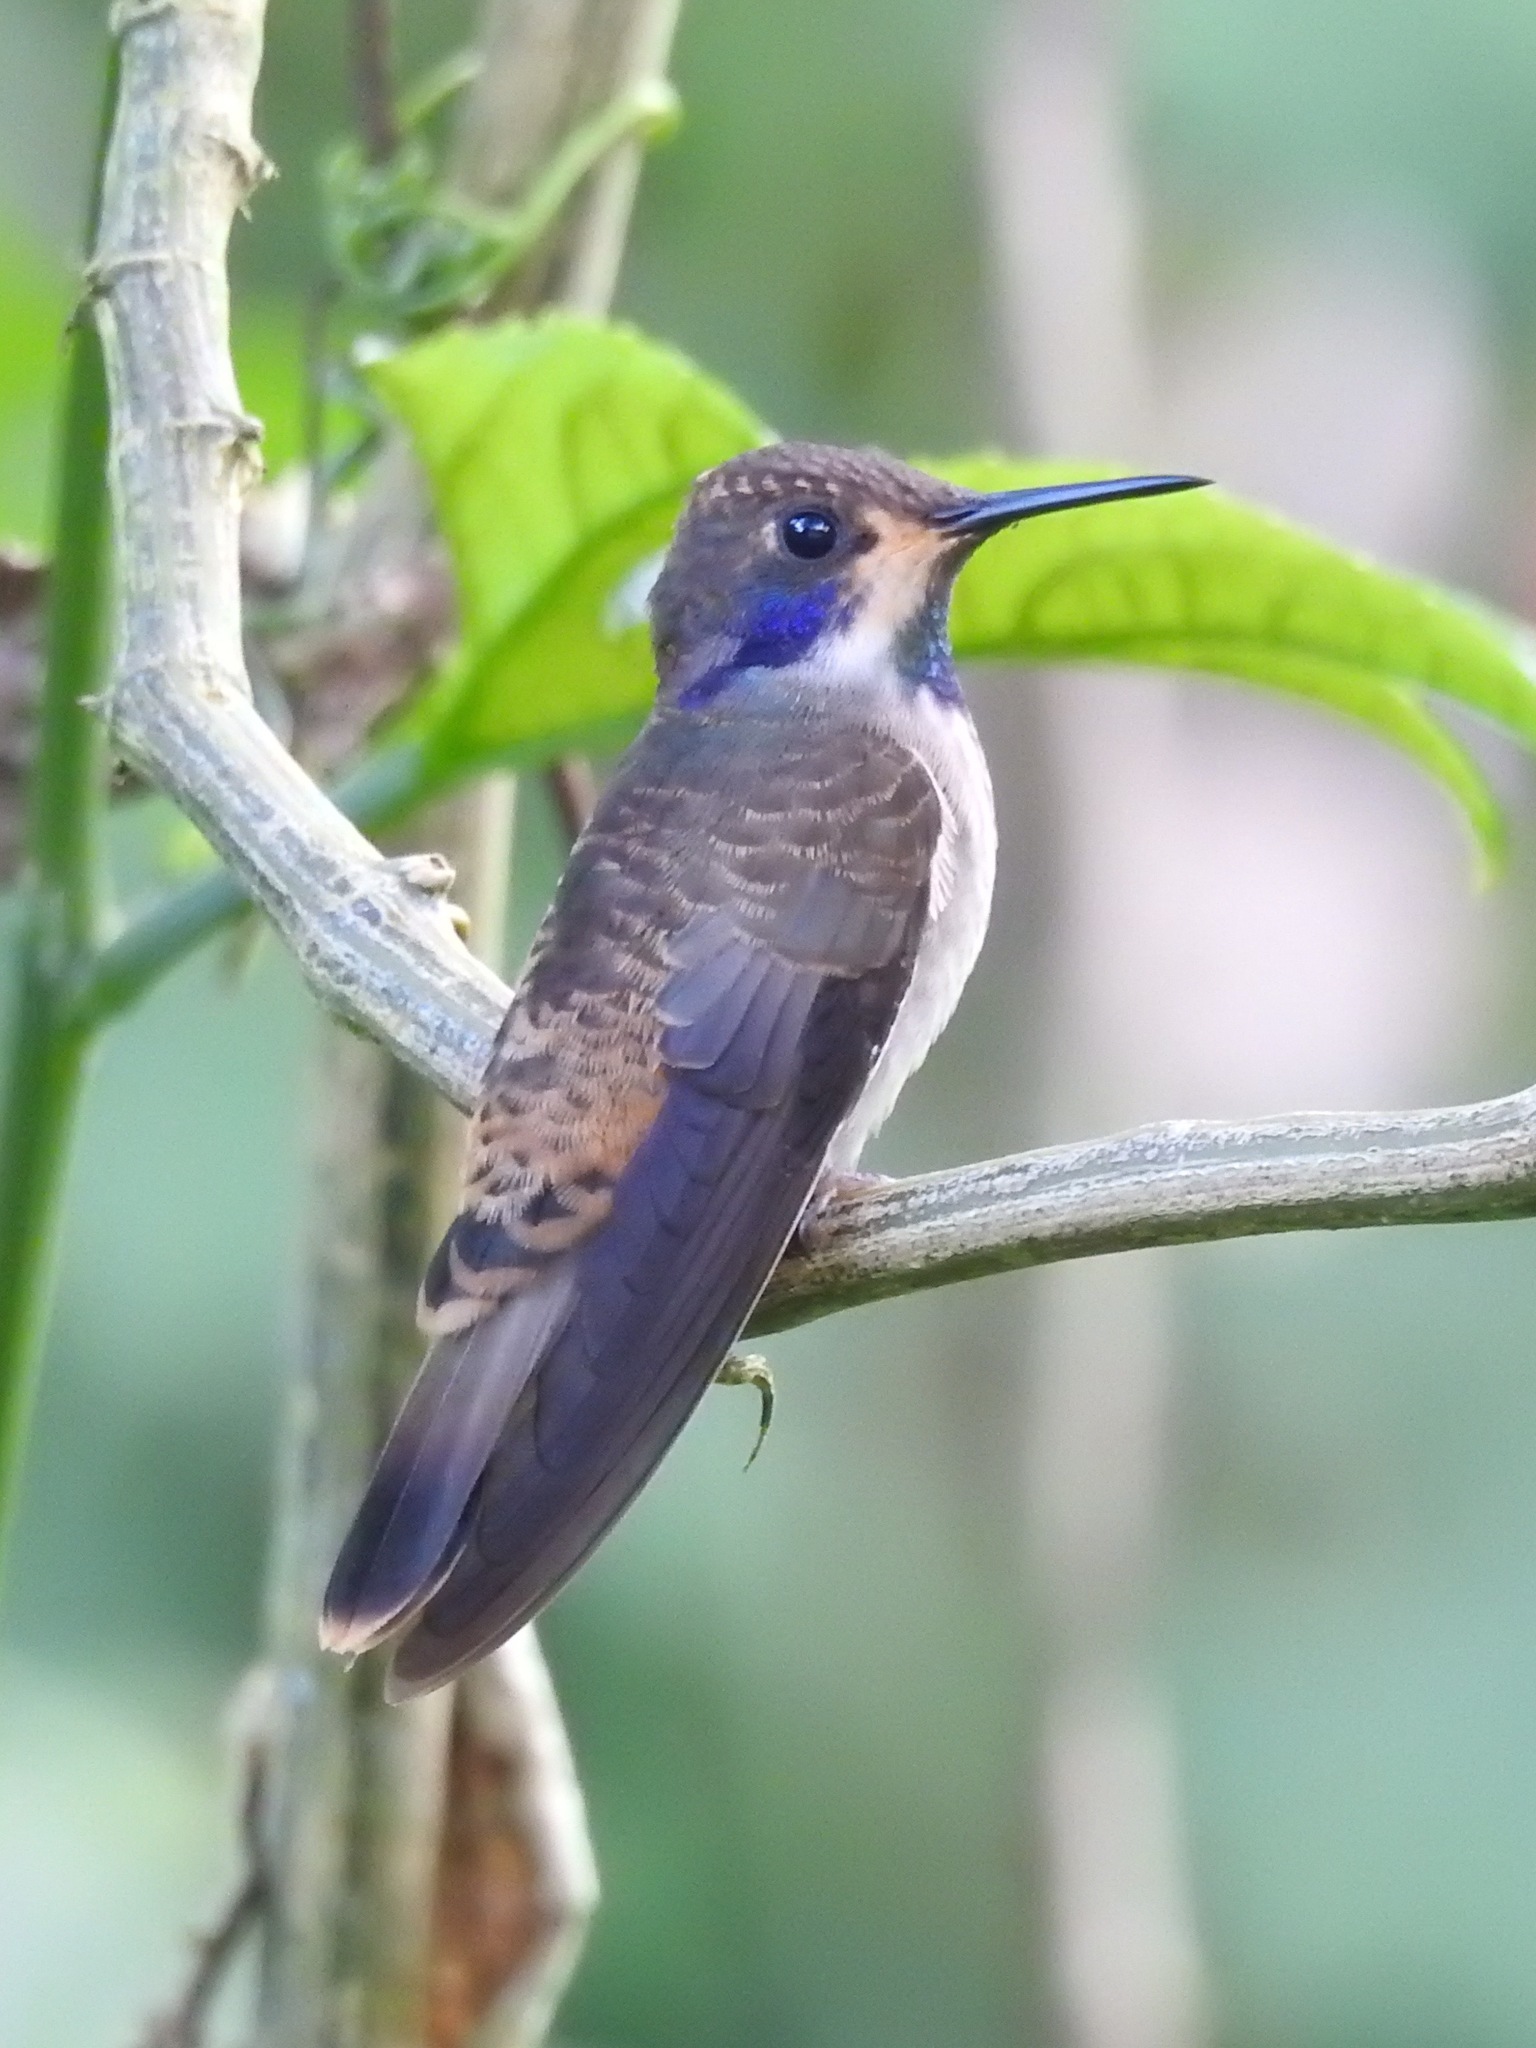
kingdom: Animalia
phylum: Chordata
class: Aves
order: Apodiformes
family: Trochilidae
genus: Colibri
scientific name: Colibri delphinae
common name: Brown violetear
